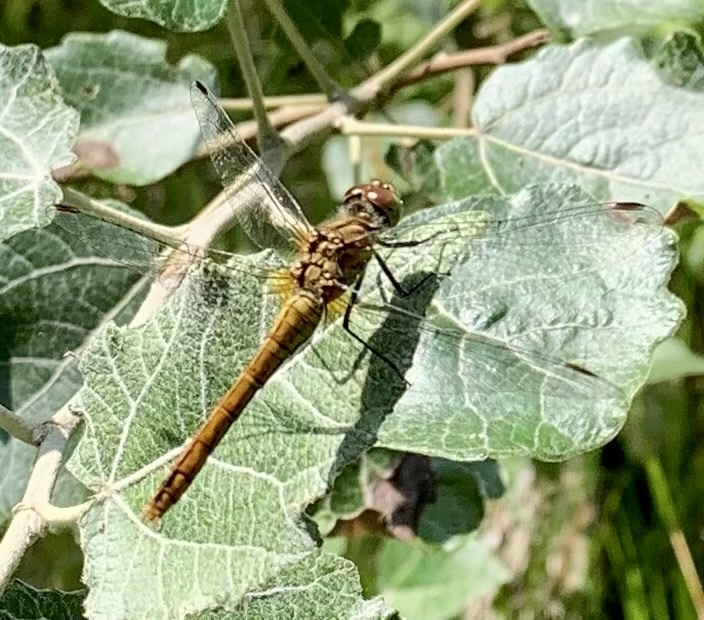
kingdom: Animalia
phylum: Arthropoda
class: Insecta
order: Odonata
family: Libellulidae
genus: Sympetrum
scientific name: Sympetrum sanguineum
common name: Ruddy darter
